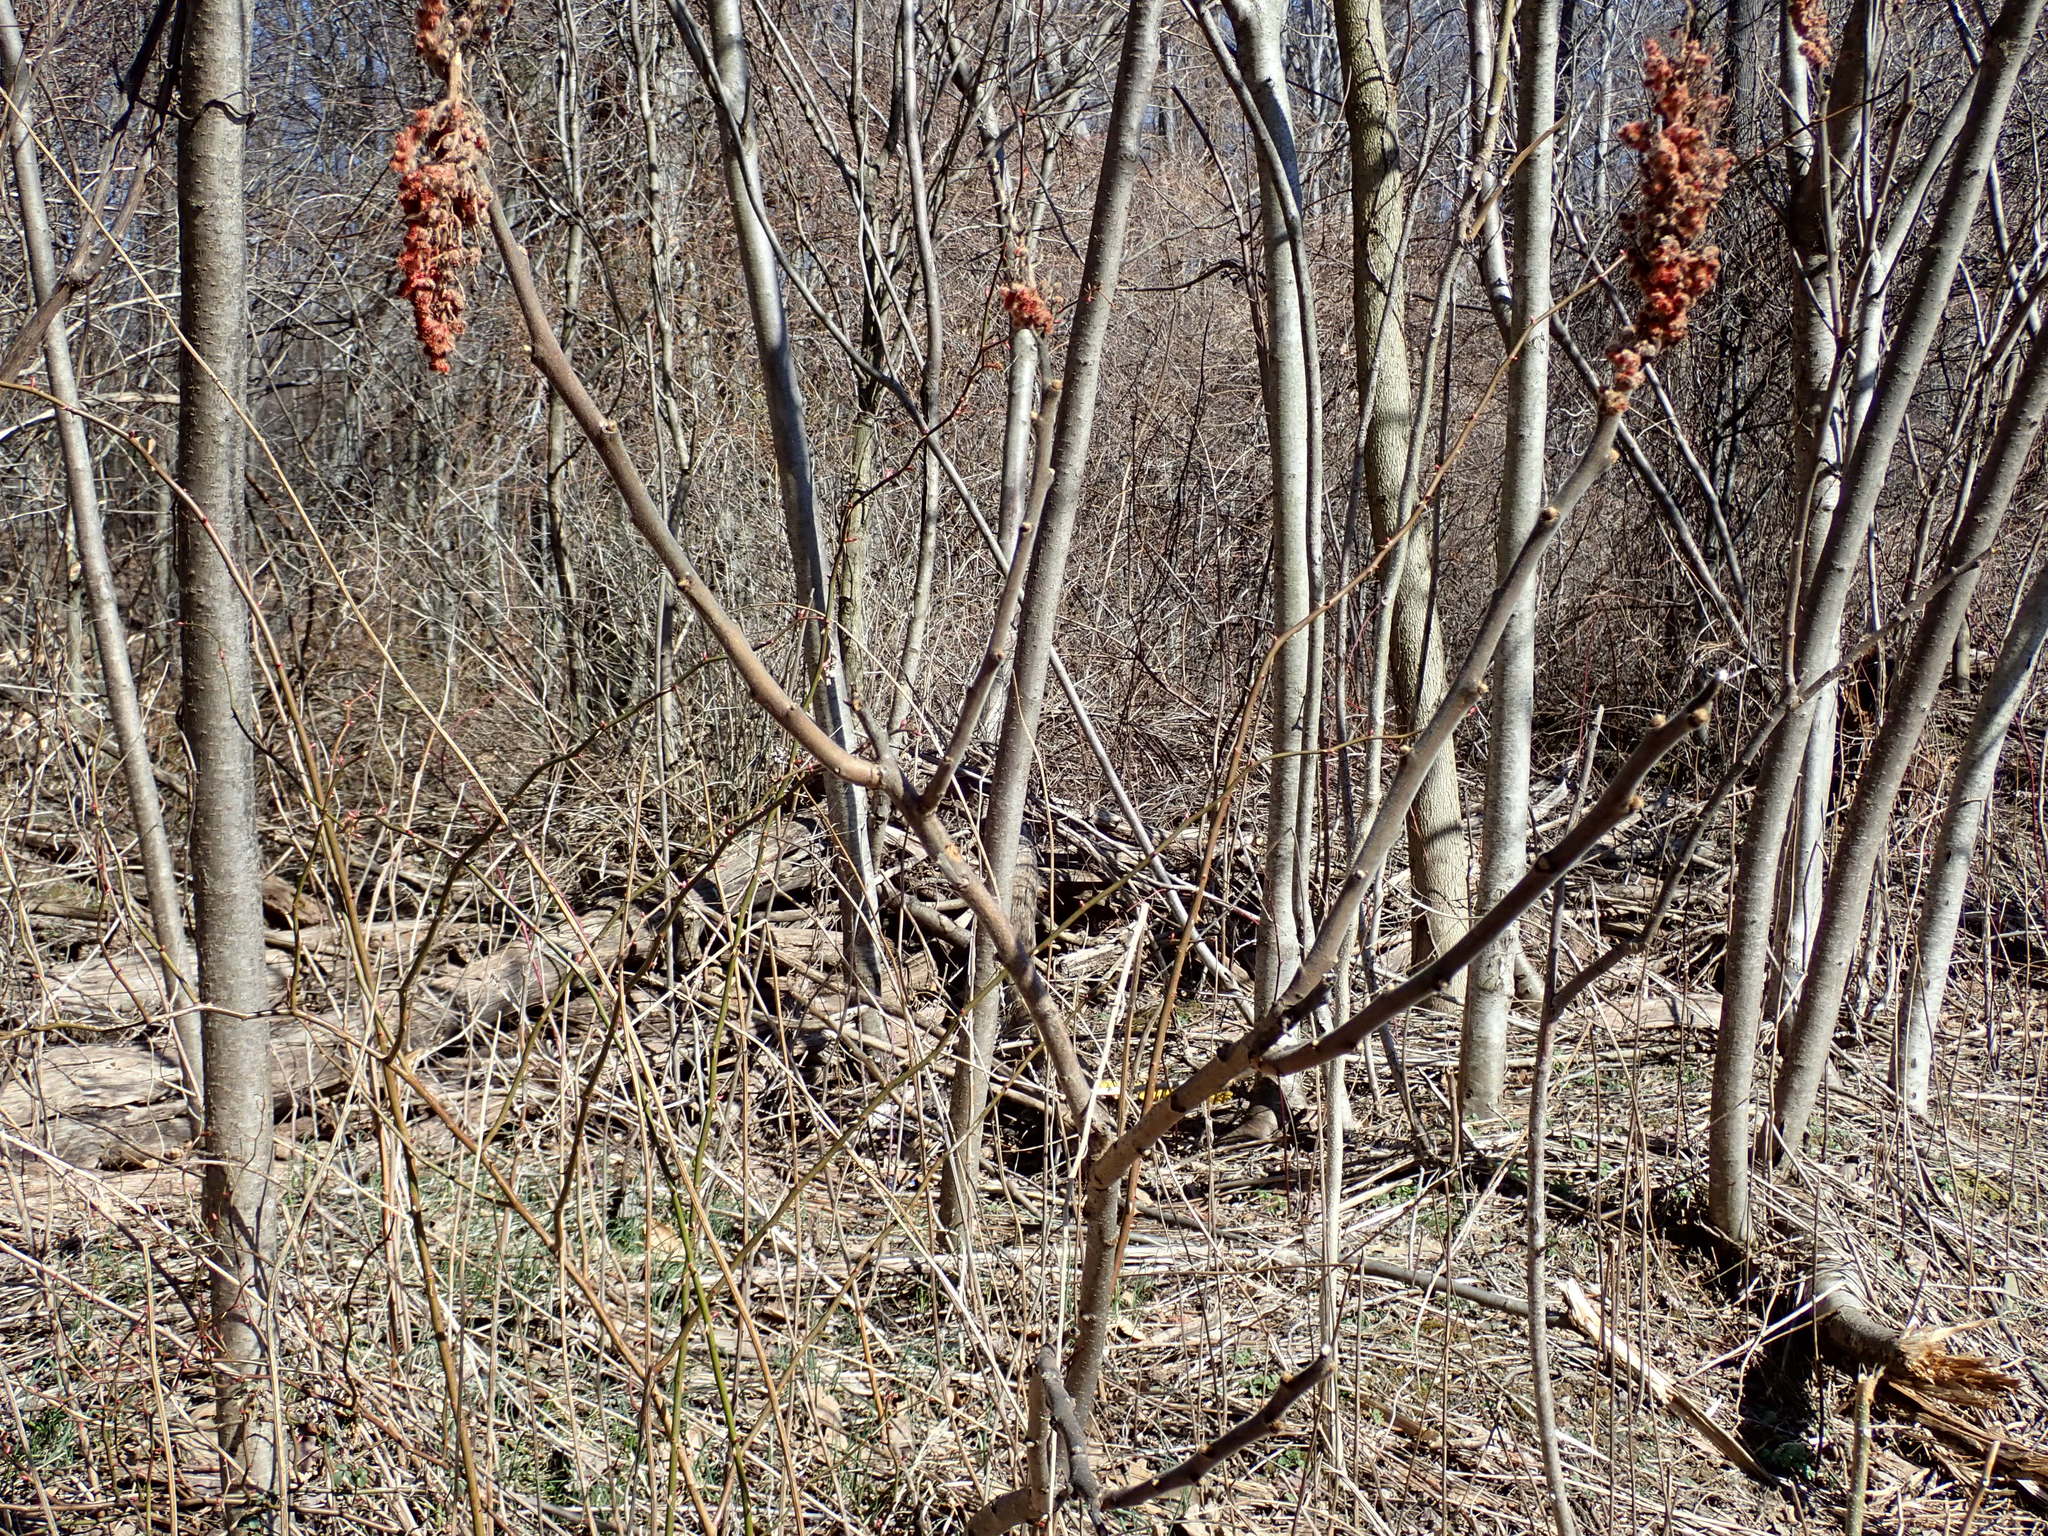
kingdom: Plantae
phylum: Tracheophyta
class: Magnoliopsida
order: Sapindales
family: Anacardiaceae
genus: Rhus
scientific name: Rhus typhina
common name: Staghorn sumac
